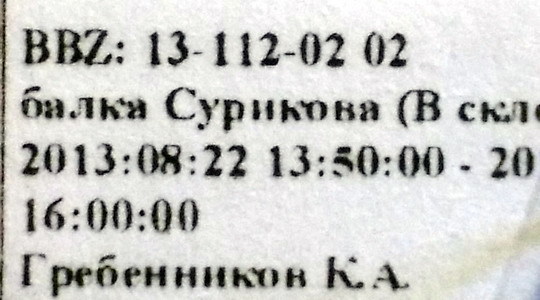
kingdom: Animalia
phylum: Arthropoda
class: Insecta
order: Hemiptera
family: Pentatomidae
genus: Ventocoris
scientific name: Ventocoris halophilum
